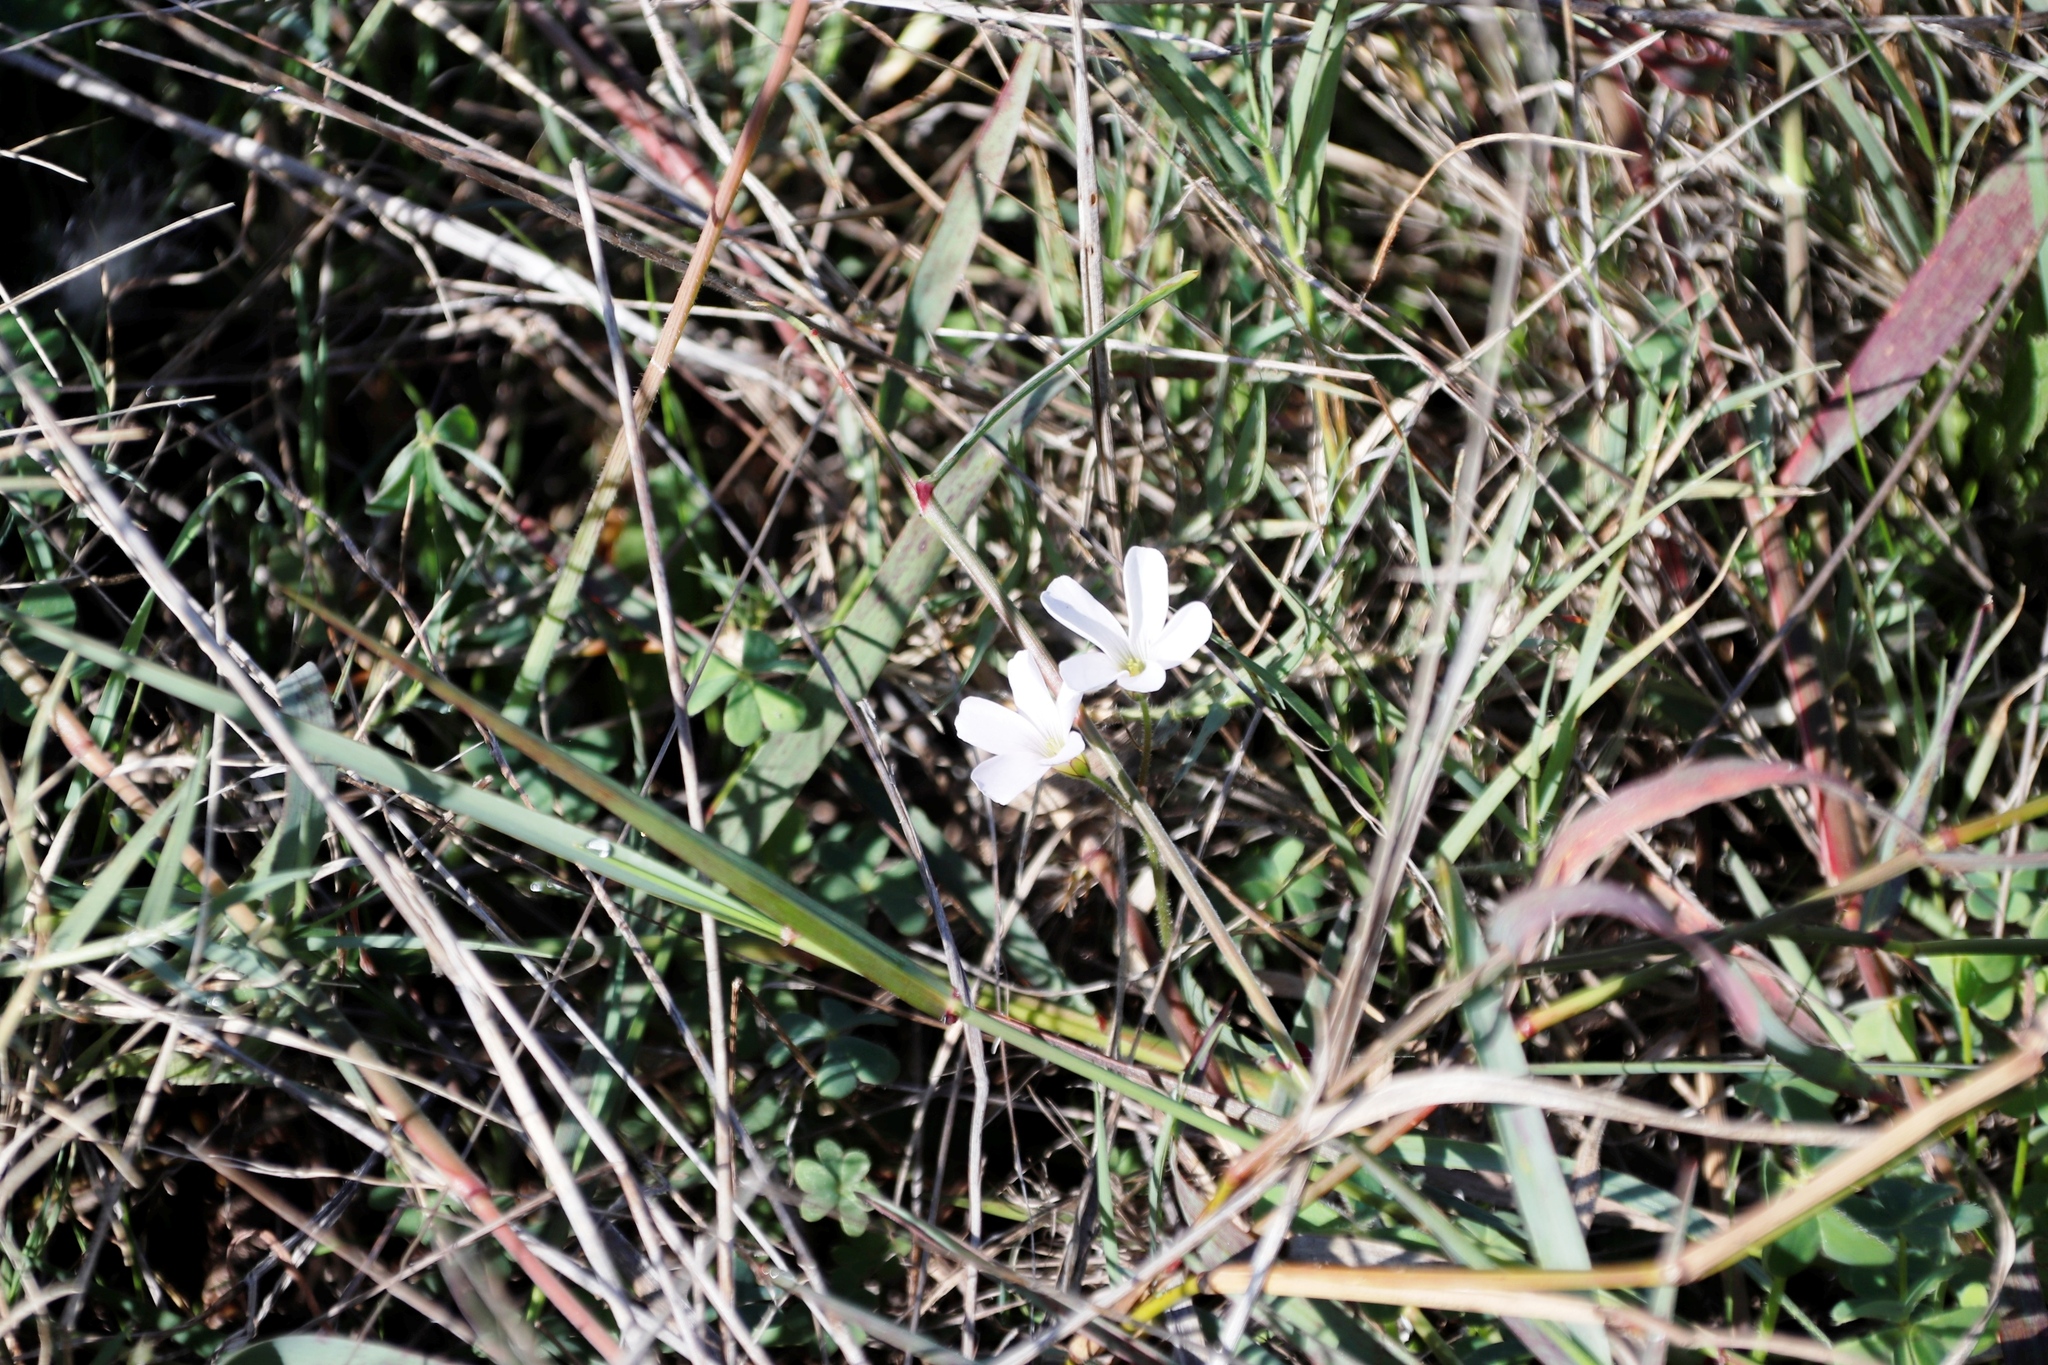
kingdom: Plantae
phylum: Tracheophyta
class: Magnoliopsida
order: Oxalidales
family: Oxalidaceae
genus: Oxalis
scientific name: Oxalis
